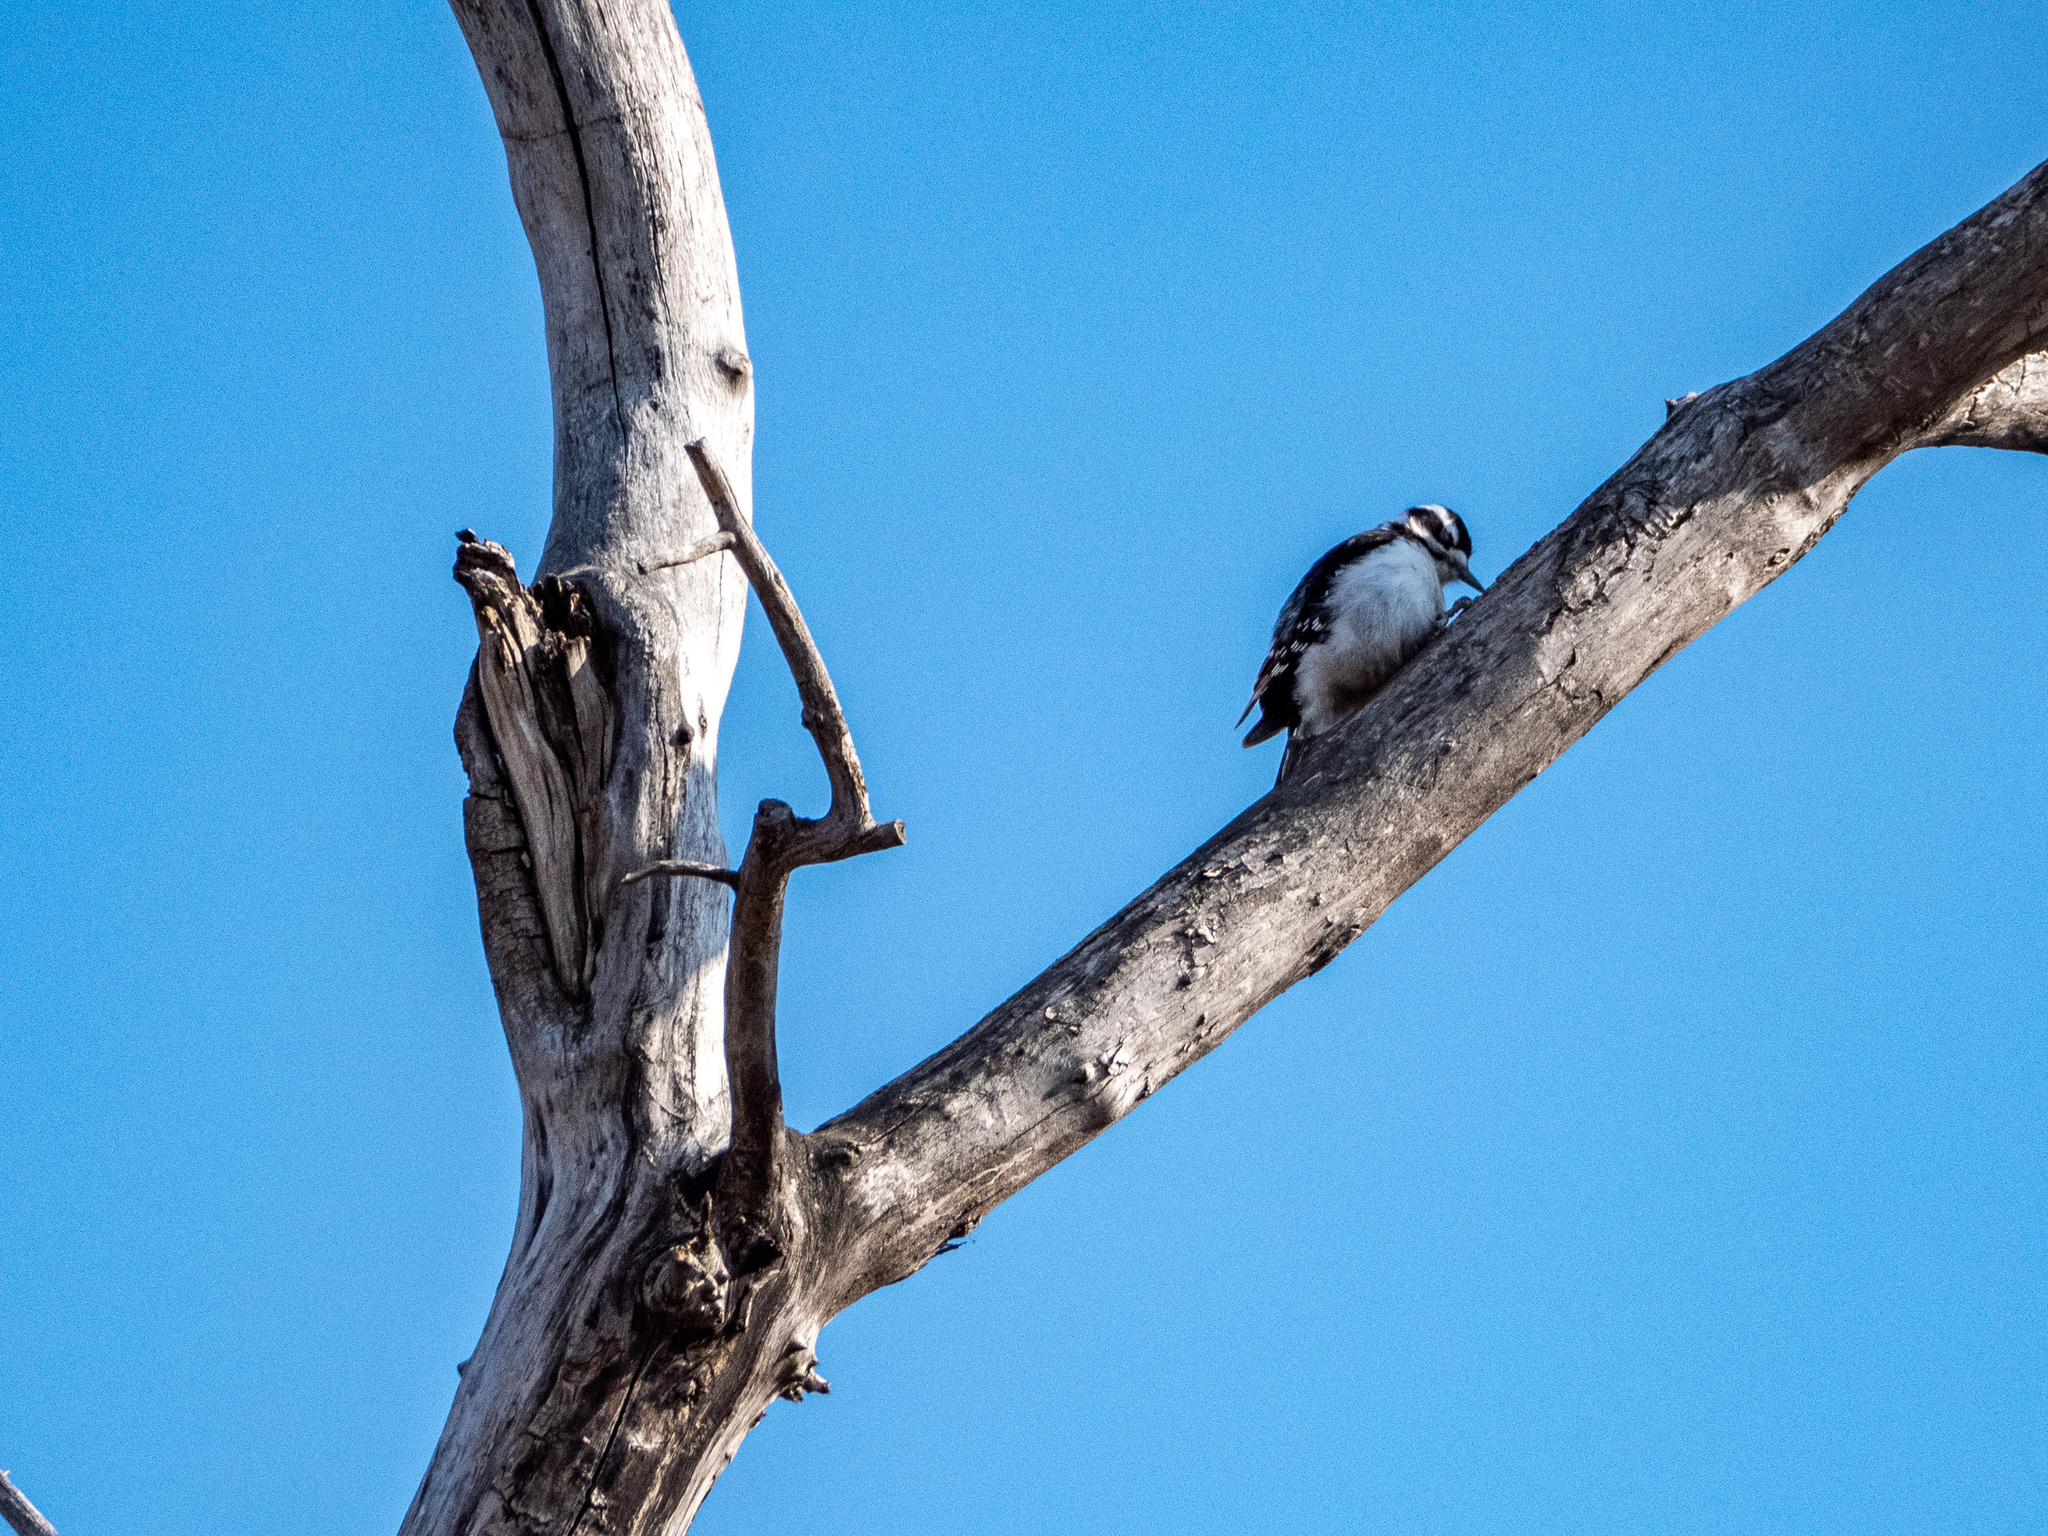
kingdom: Animalia
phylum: Chordata
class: Aves
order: Piciformes
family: Picidae
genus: Dryobates
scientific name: Dryobates pubescens
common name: Downy woodpecker
